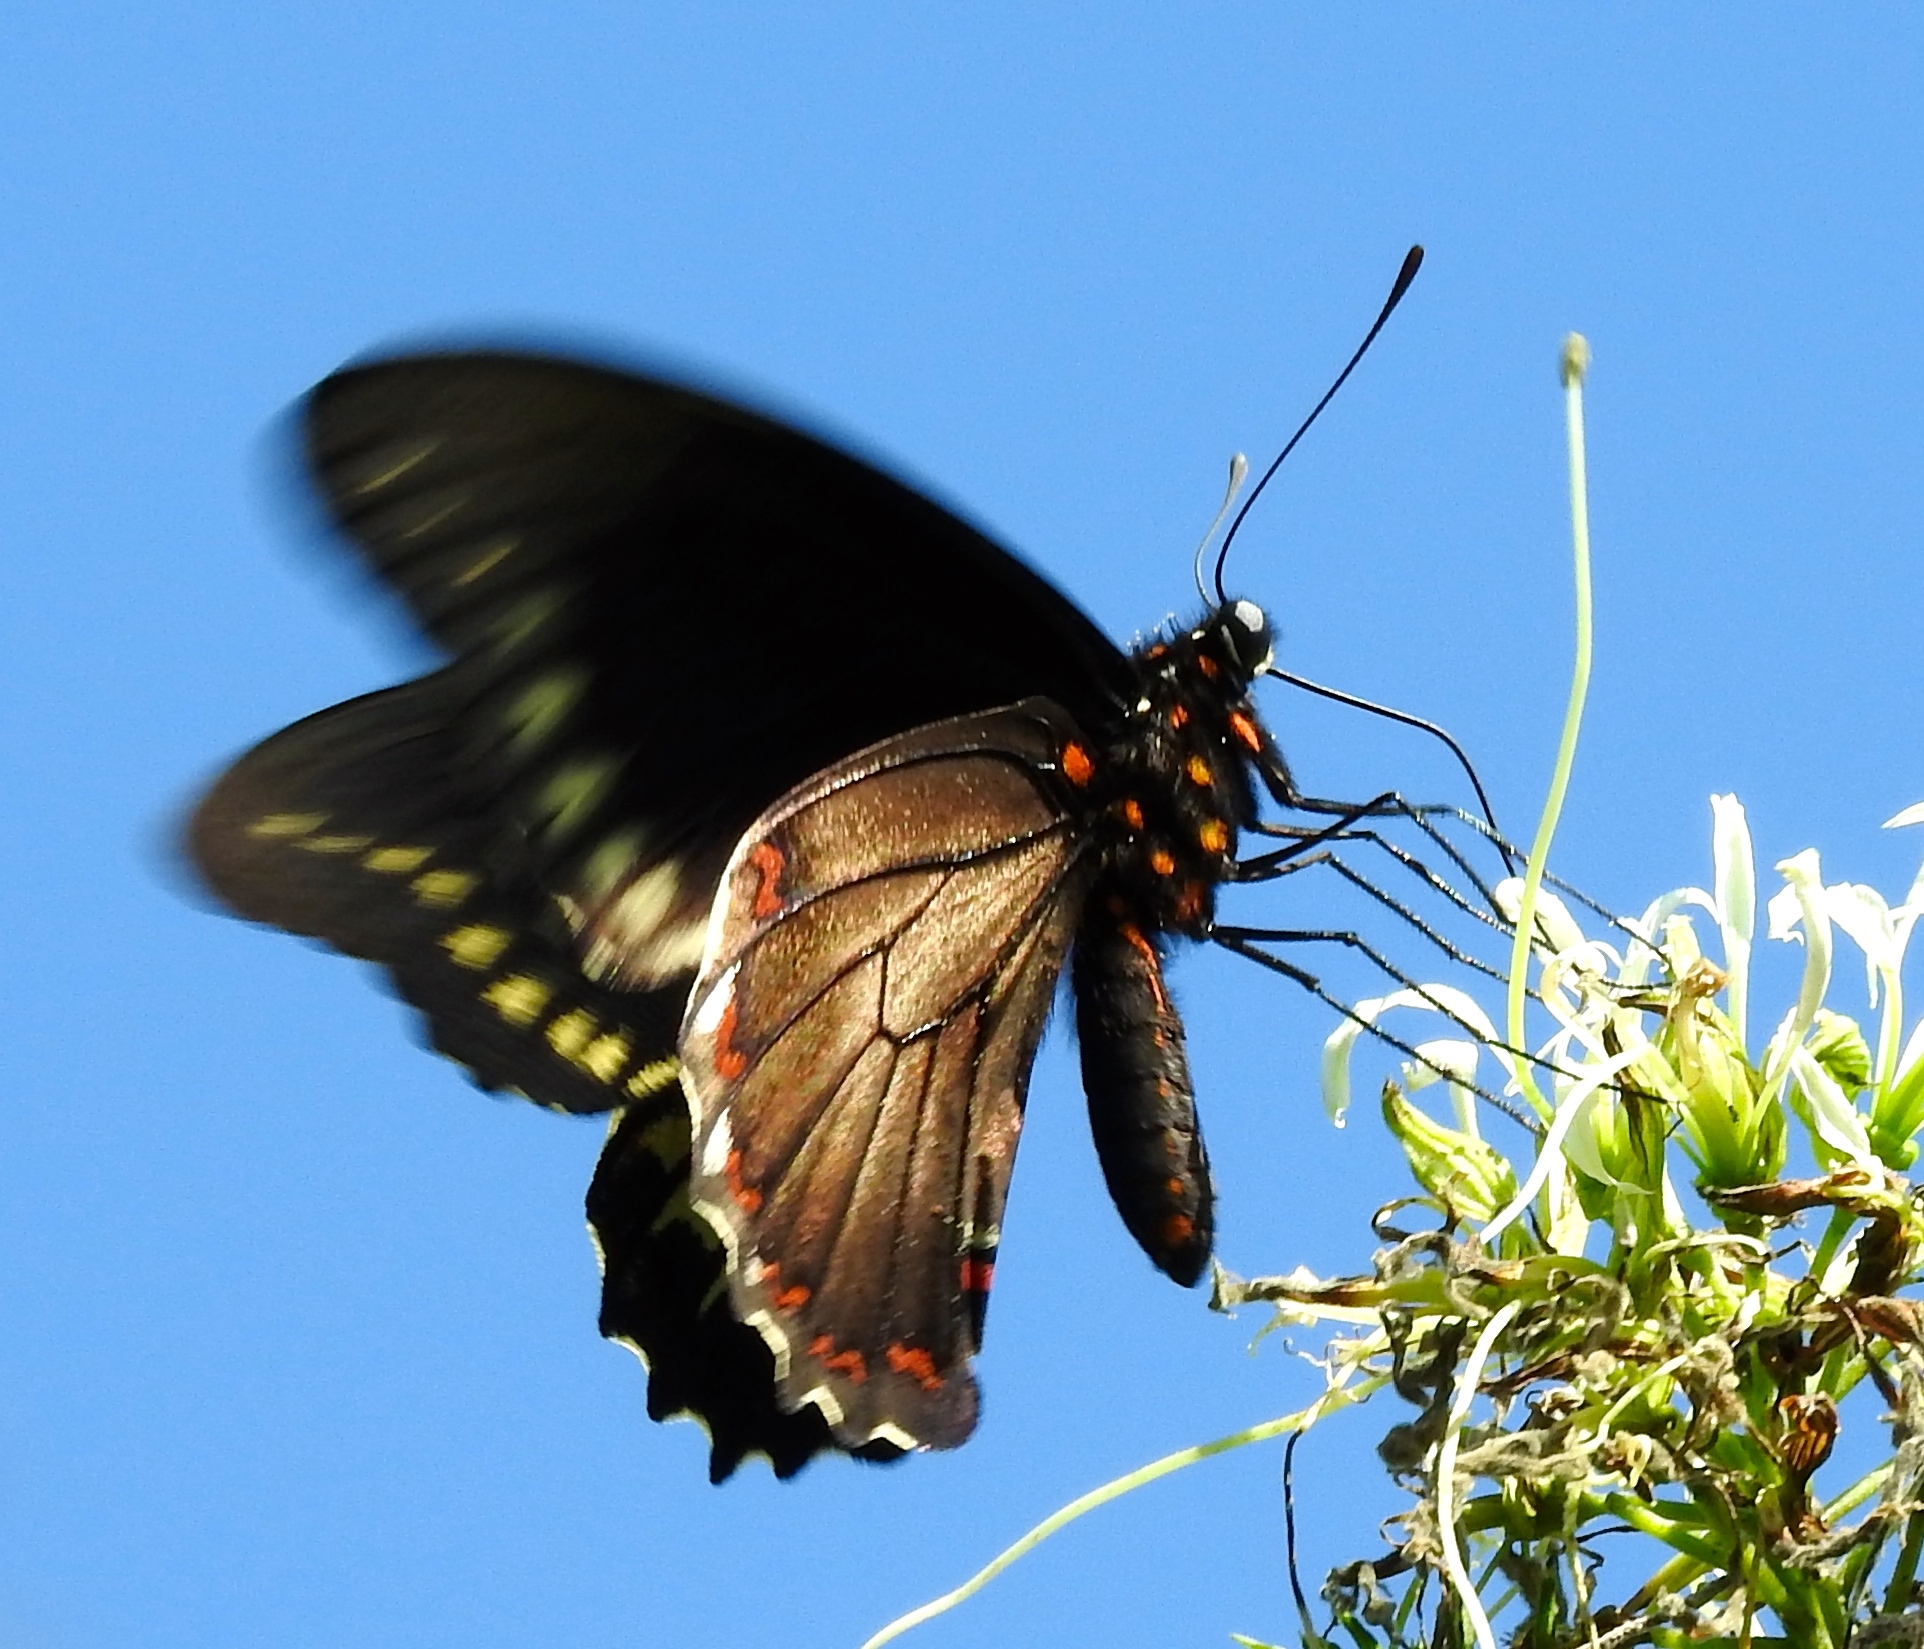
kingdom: Animalia
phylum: Arthropoda
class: Insecta
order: Lepidoptera
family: Papilionidae
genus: Battus
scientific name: Battus polydamas
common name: Polydamas swallowtail
